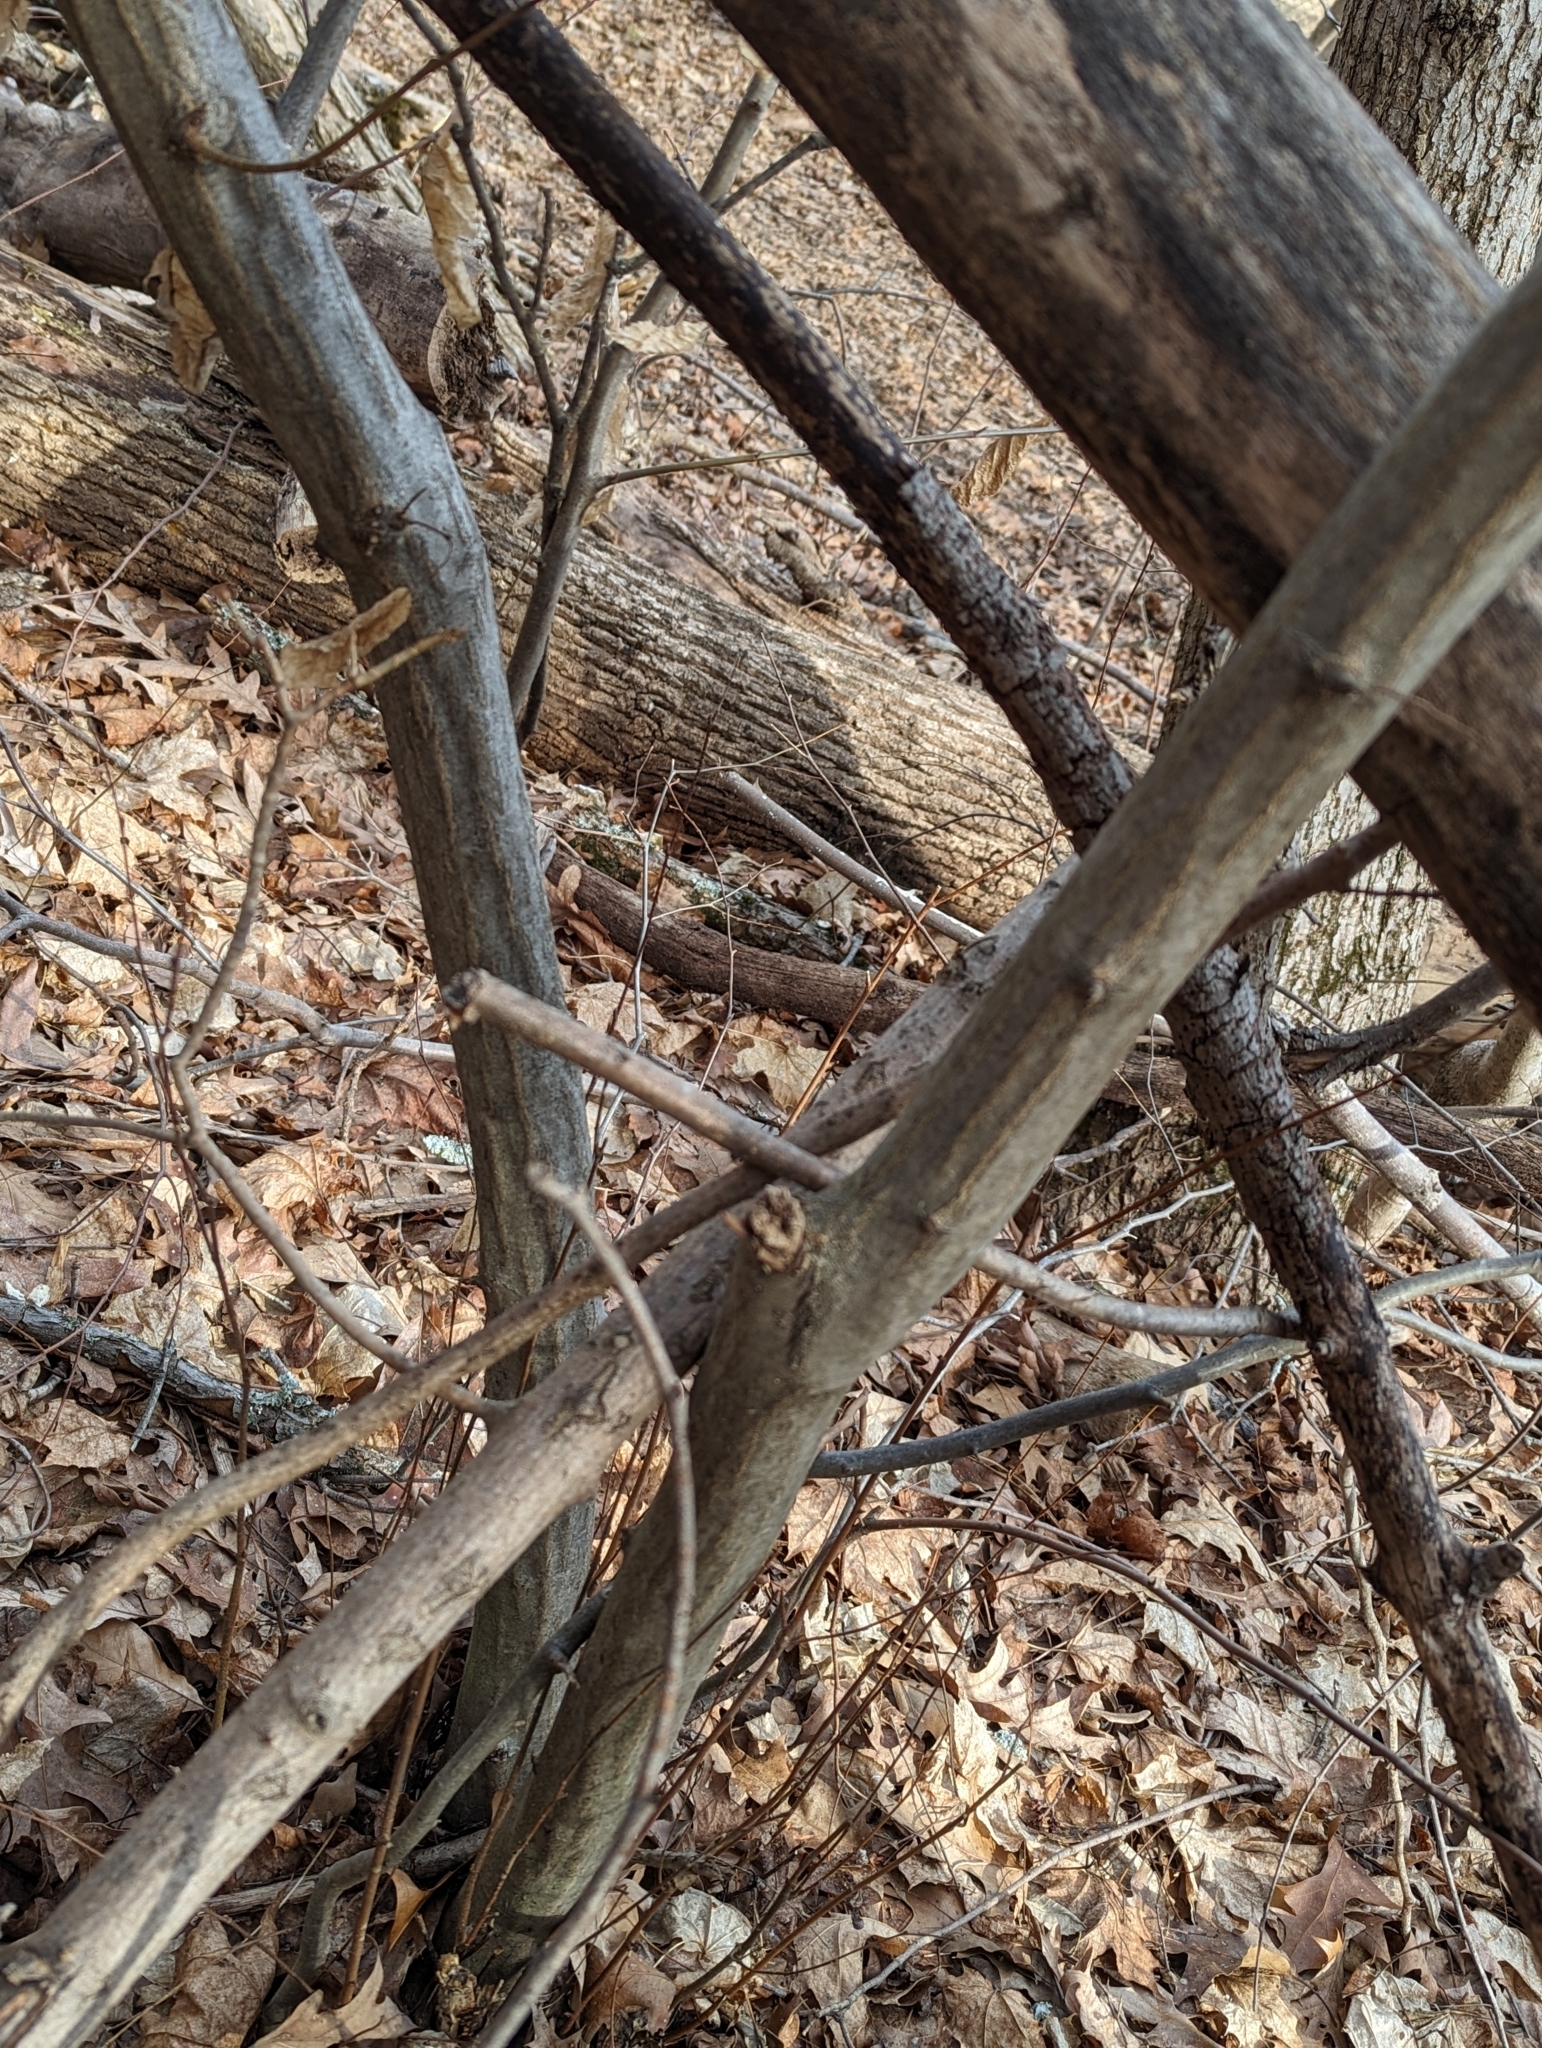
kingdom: Plantae
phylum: Tracheophyta
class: Magnoliopsida
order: Fagales
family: Betulaceae
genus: Carpinus
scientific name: Carpinus caroliniana
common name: American hornbeam
